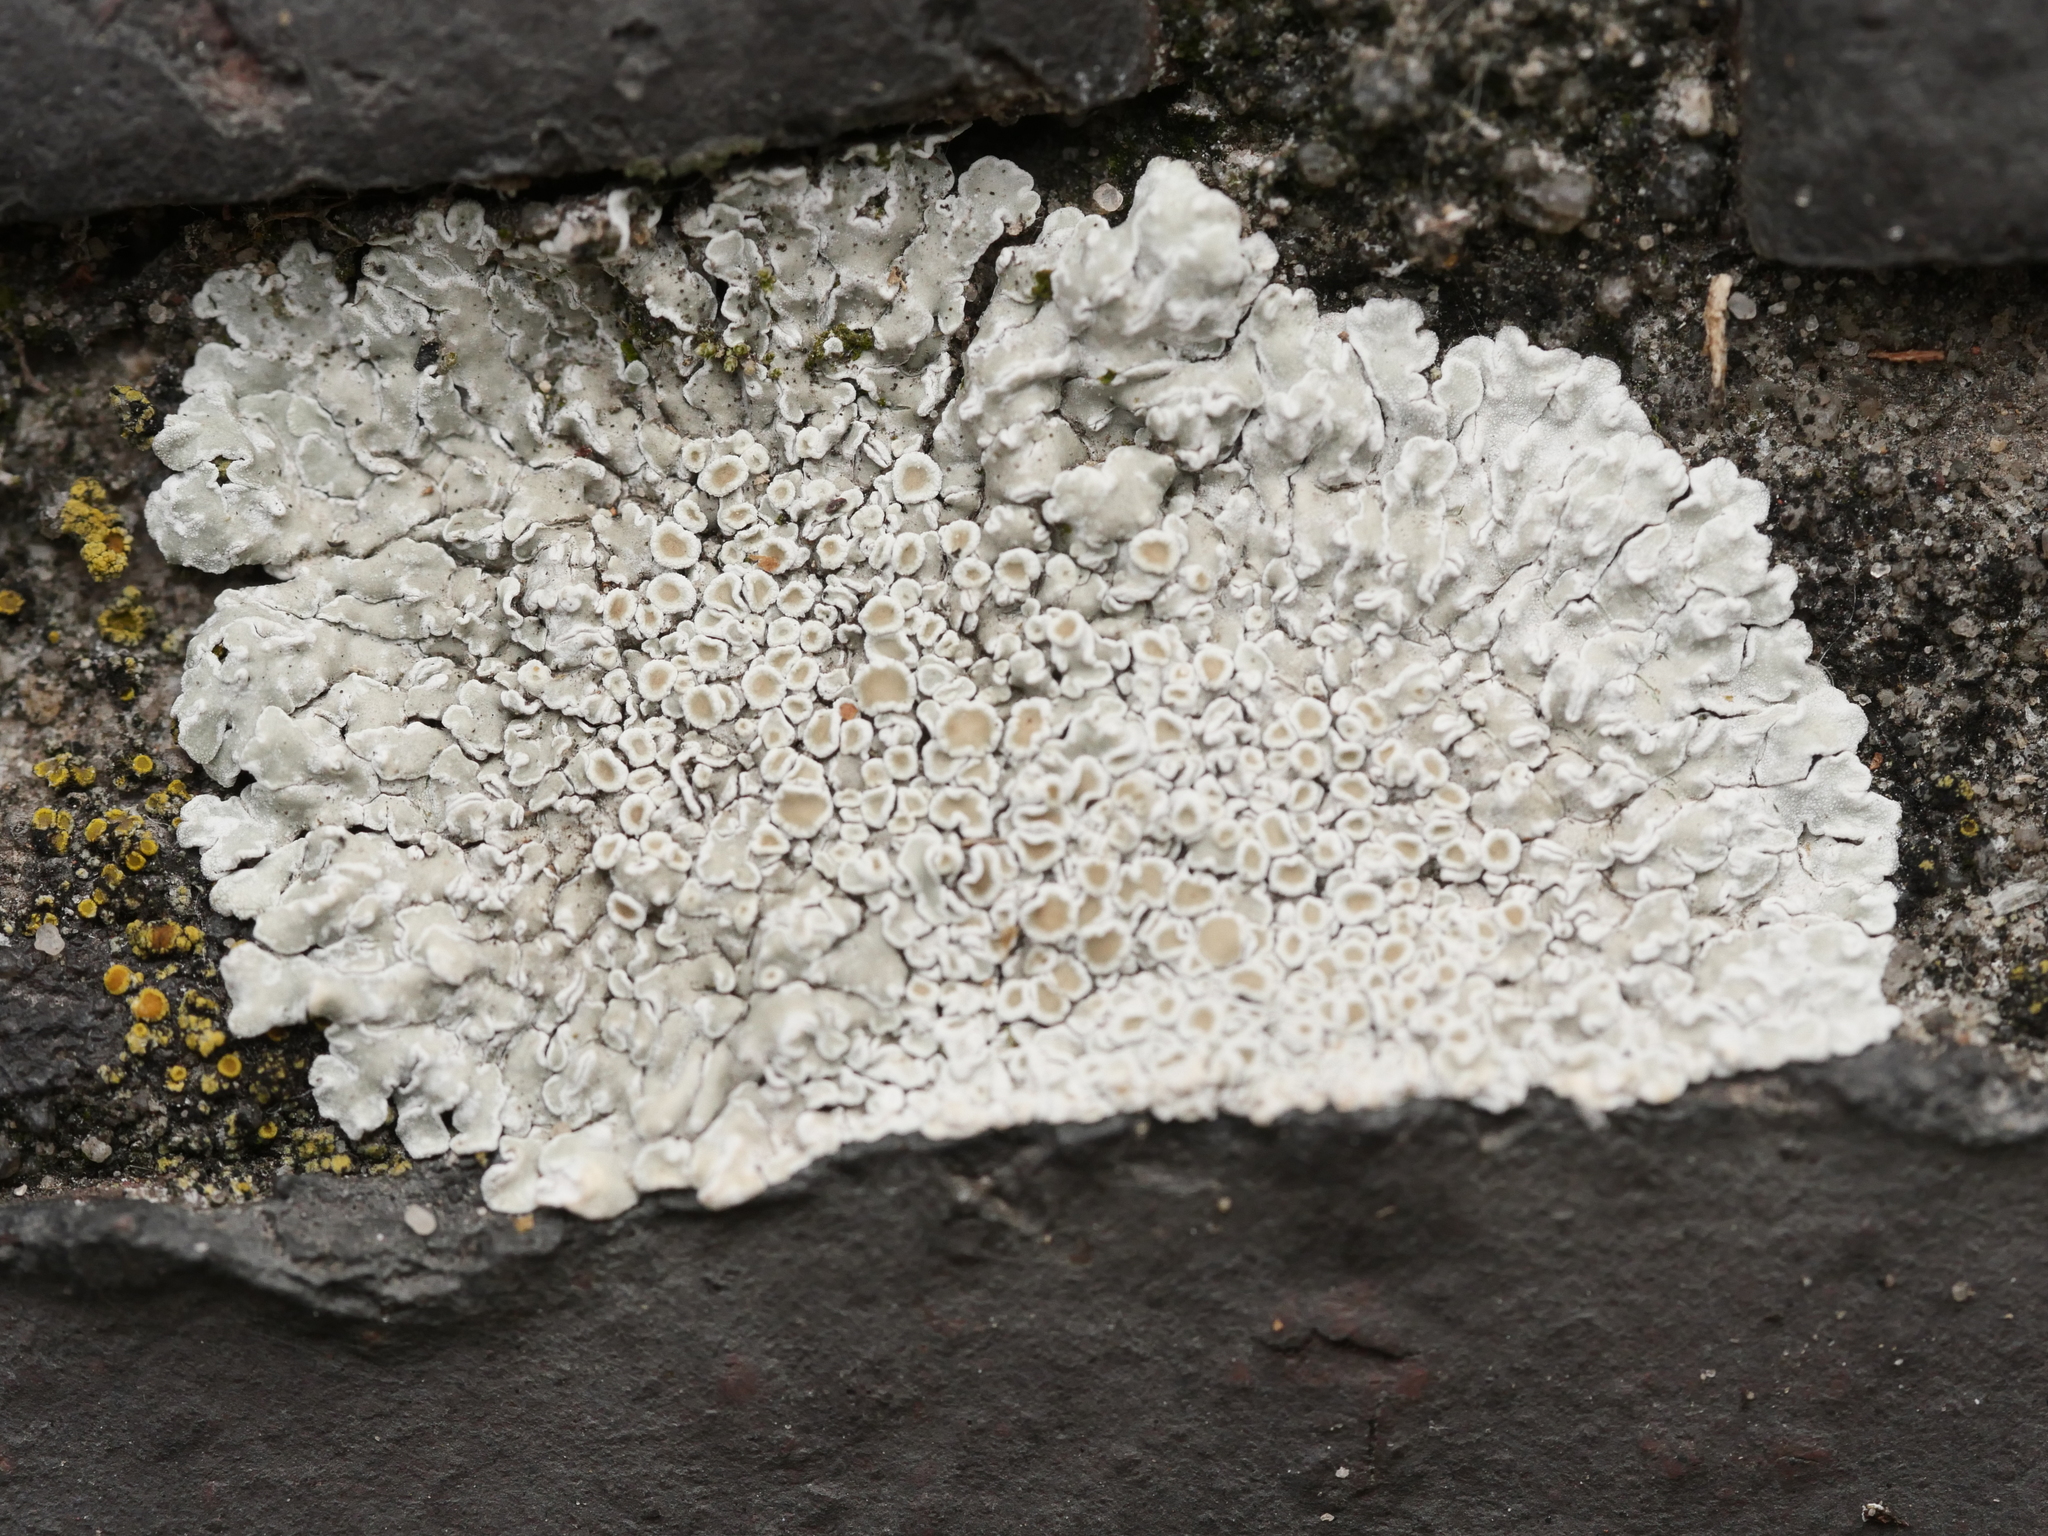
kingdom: Fungi
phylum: Ascomycota
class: Lecanoromycetes
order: Lecanorales
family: Lecanoraceae
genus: Protoparmeliopsis
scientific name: Protoparmeliopsis muralis
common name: Stonewall rim lichen
